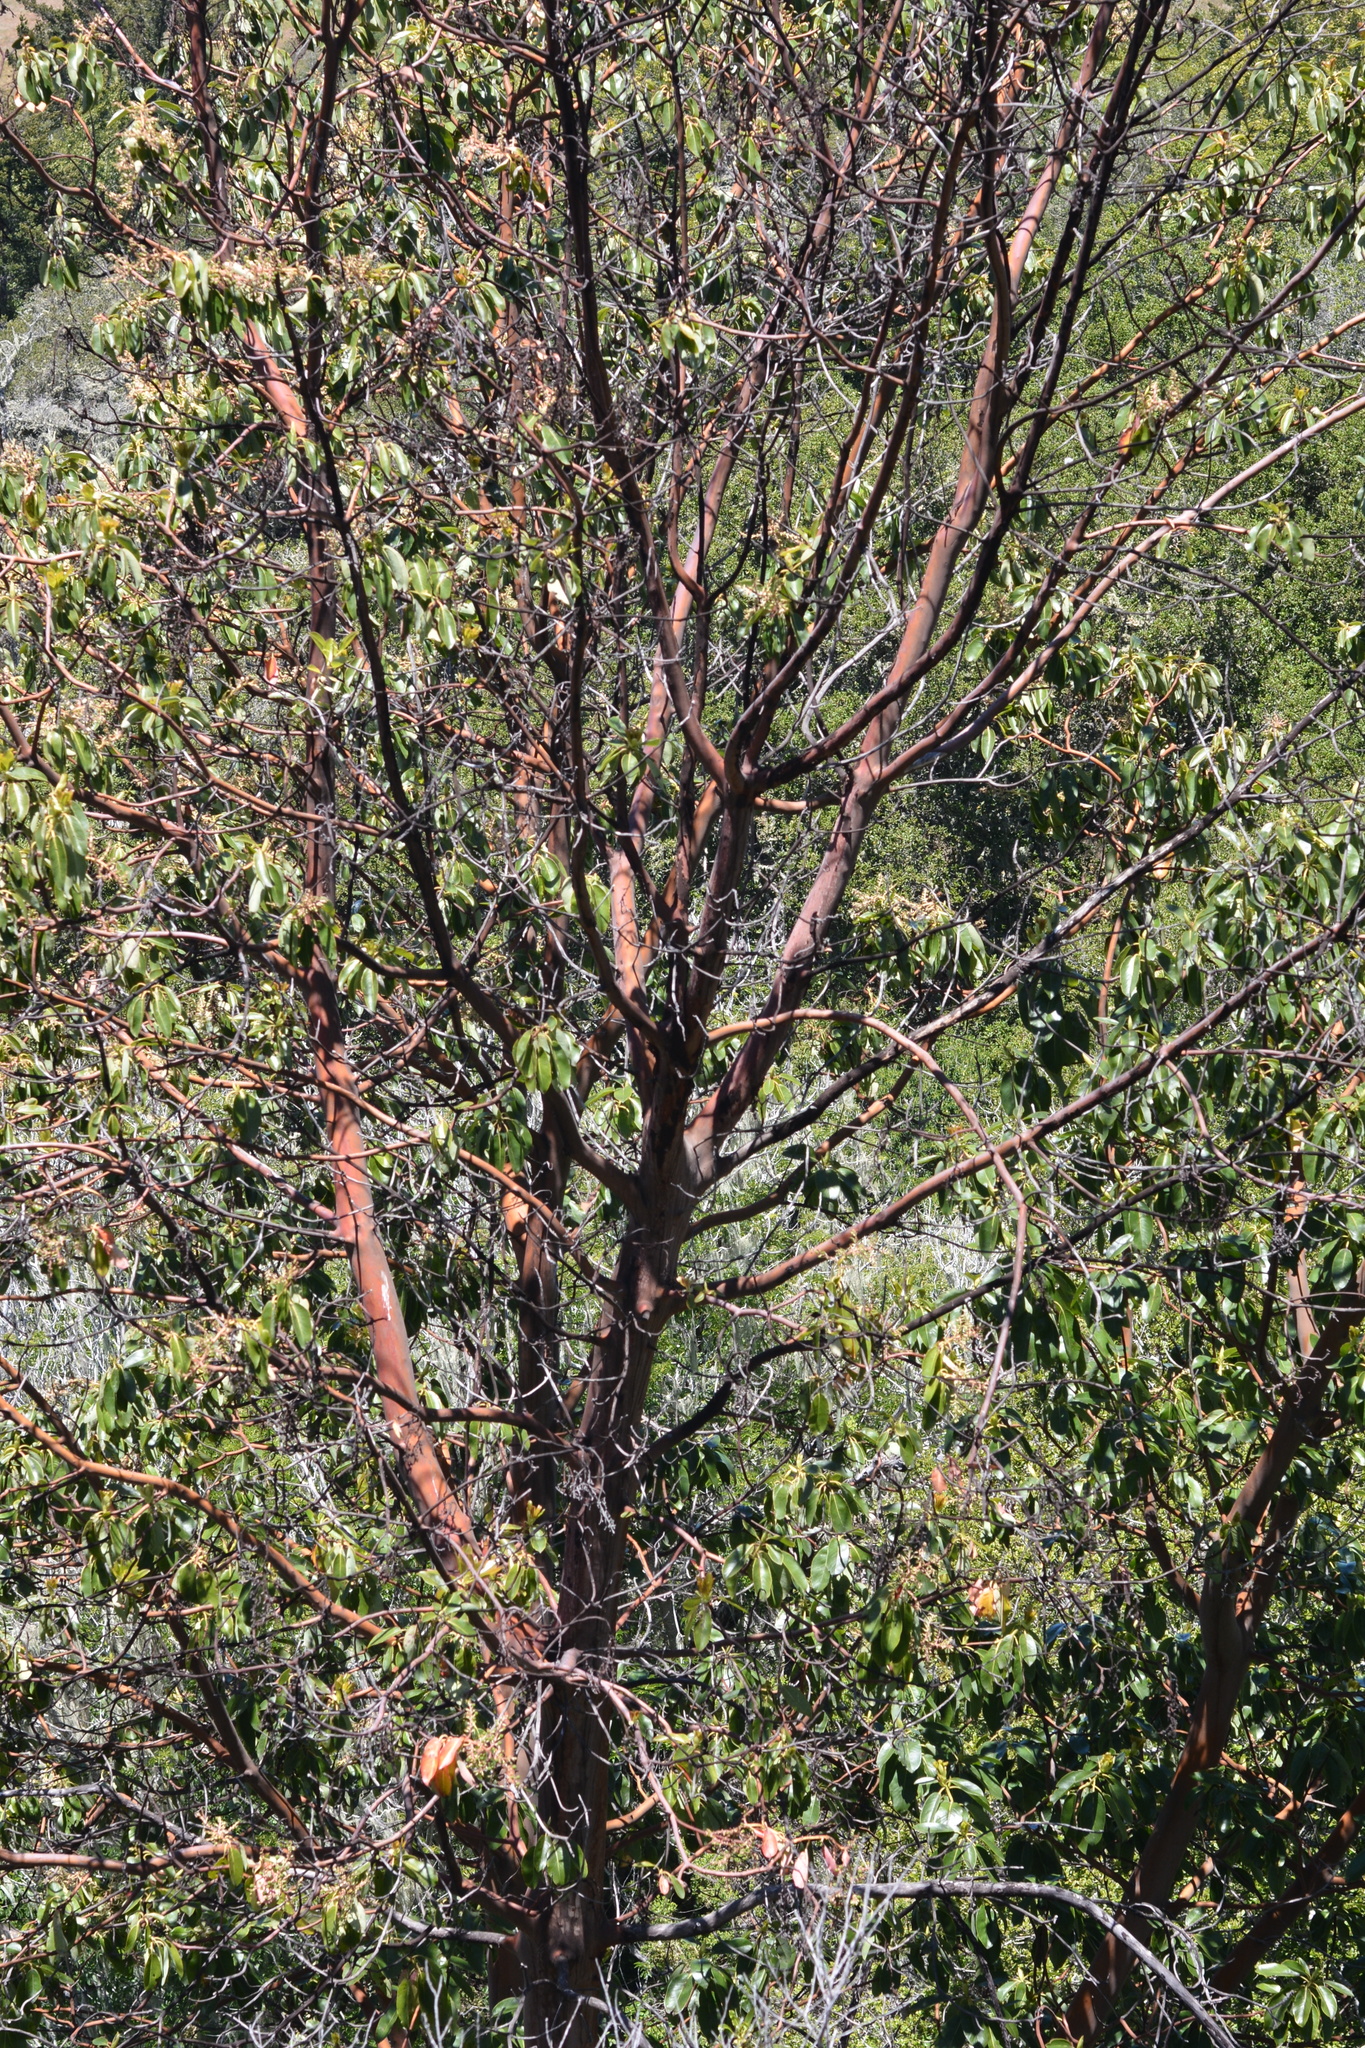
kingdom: Plantae
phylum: Tracheophyta
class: Magnoliopsida
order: Ericales
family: Ericaceae
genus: Arbutus
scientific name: Arbutus menziesii
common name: Pacific madrone
